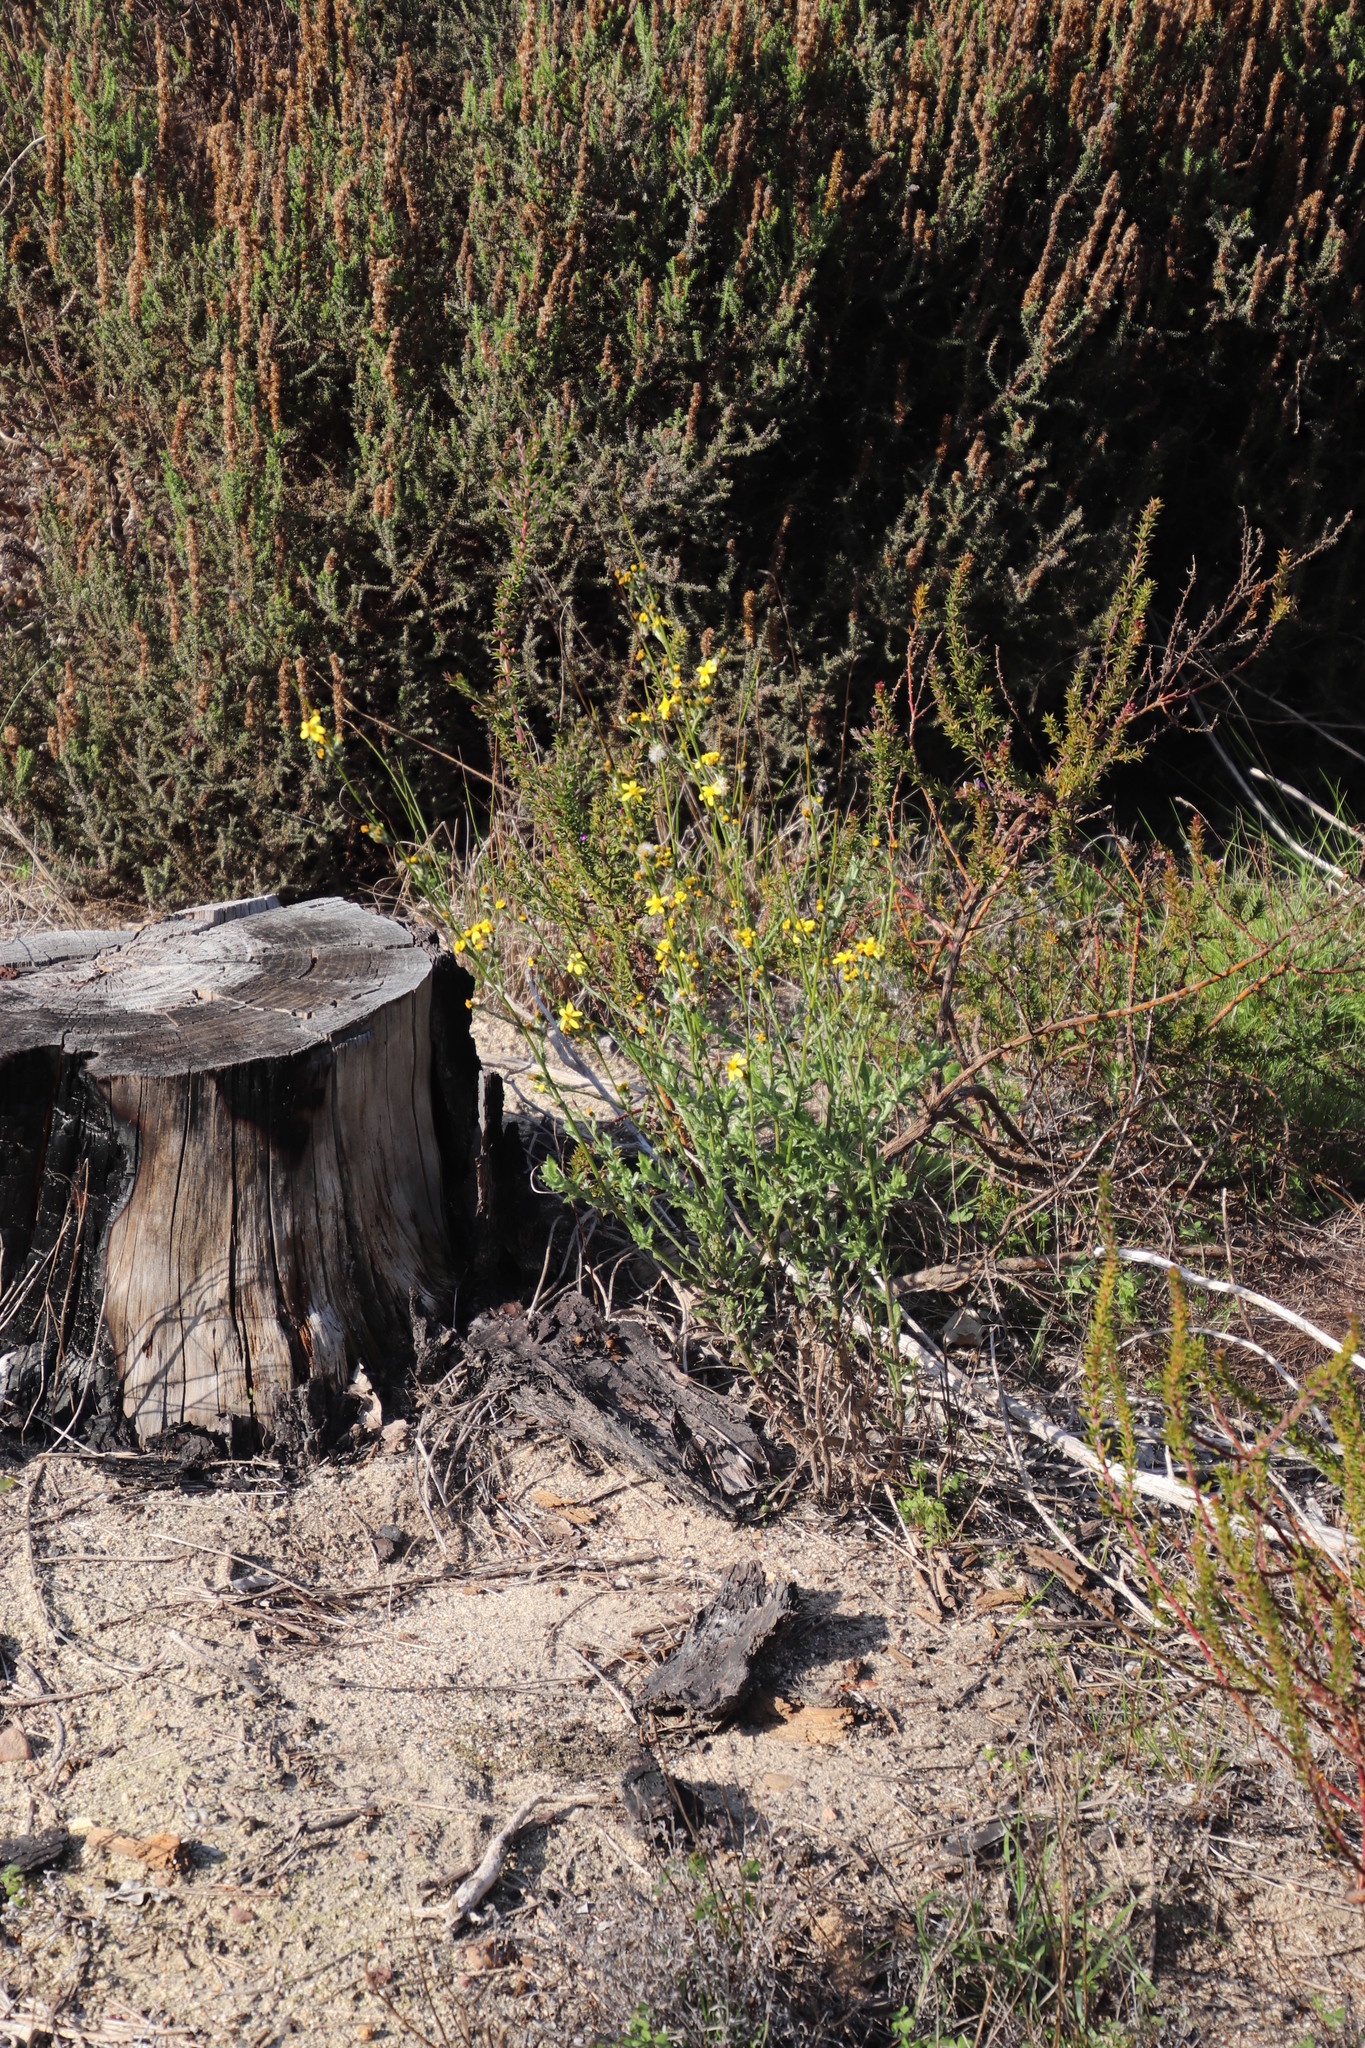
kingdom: Plantae
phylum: Tracheophyta
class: Magnoliopsida
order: Asterales
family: Asteraceae
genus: Senecio
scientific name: Senecio pubigerus
